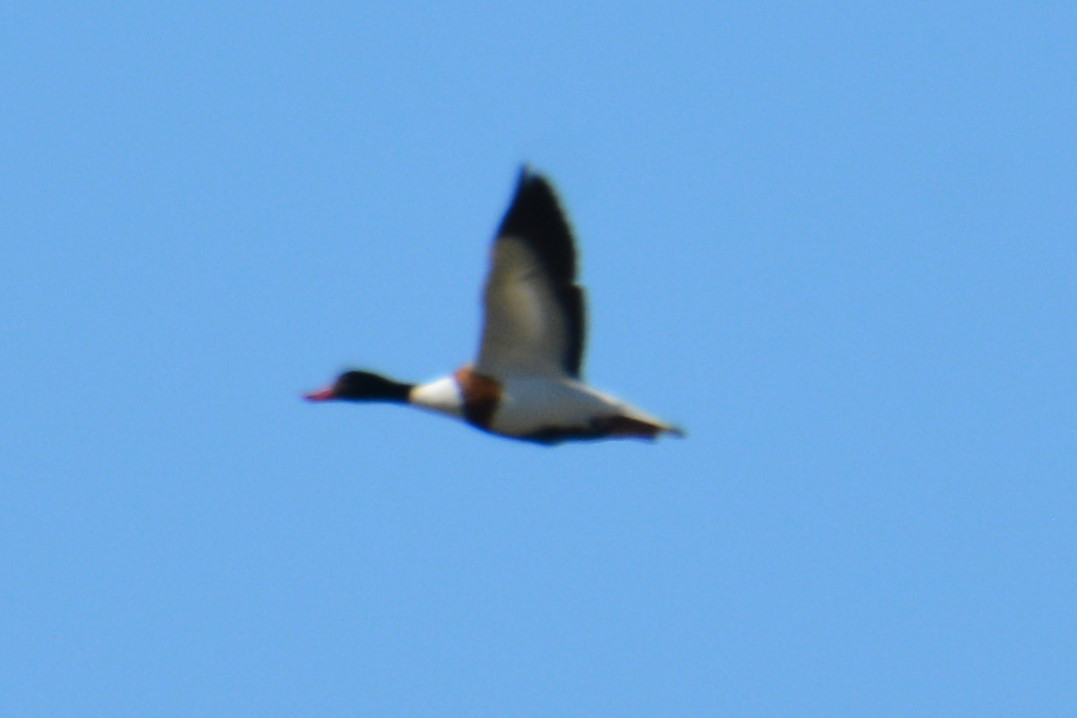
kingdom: Animalia
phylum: Chordata
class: Aves
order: Anseriformes
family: Anatidae
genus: Tadorna
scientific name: Tadorna tadorna
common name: Common shelduck
